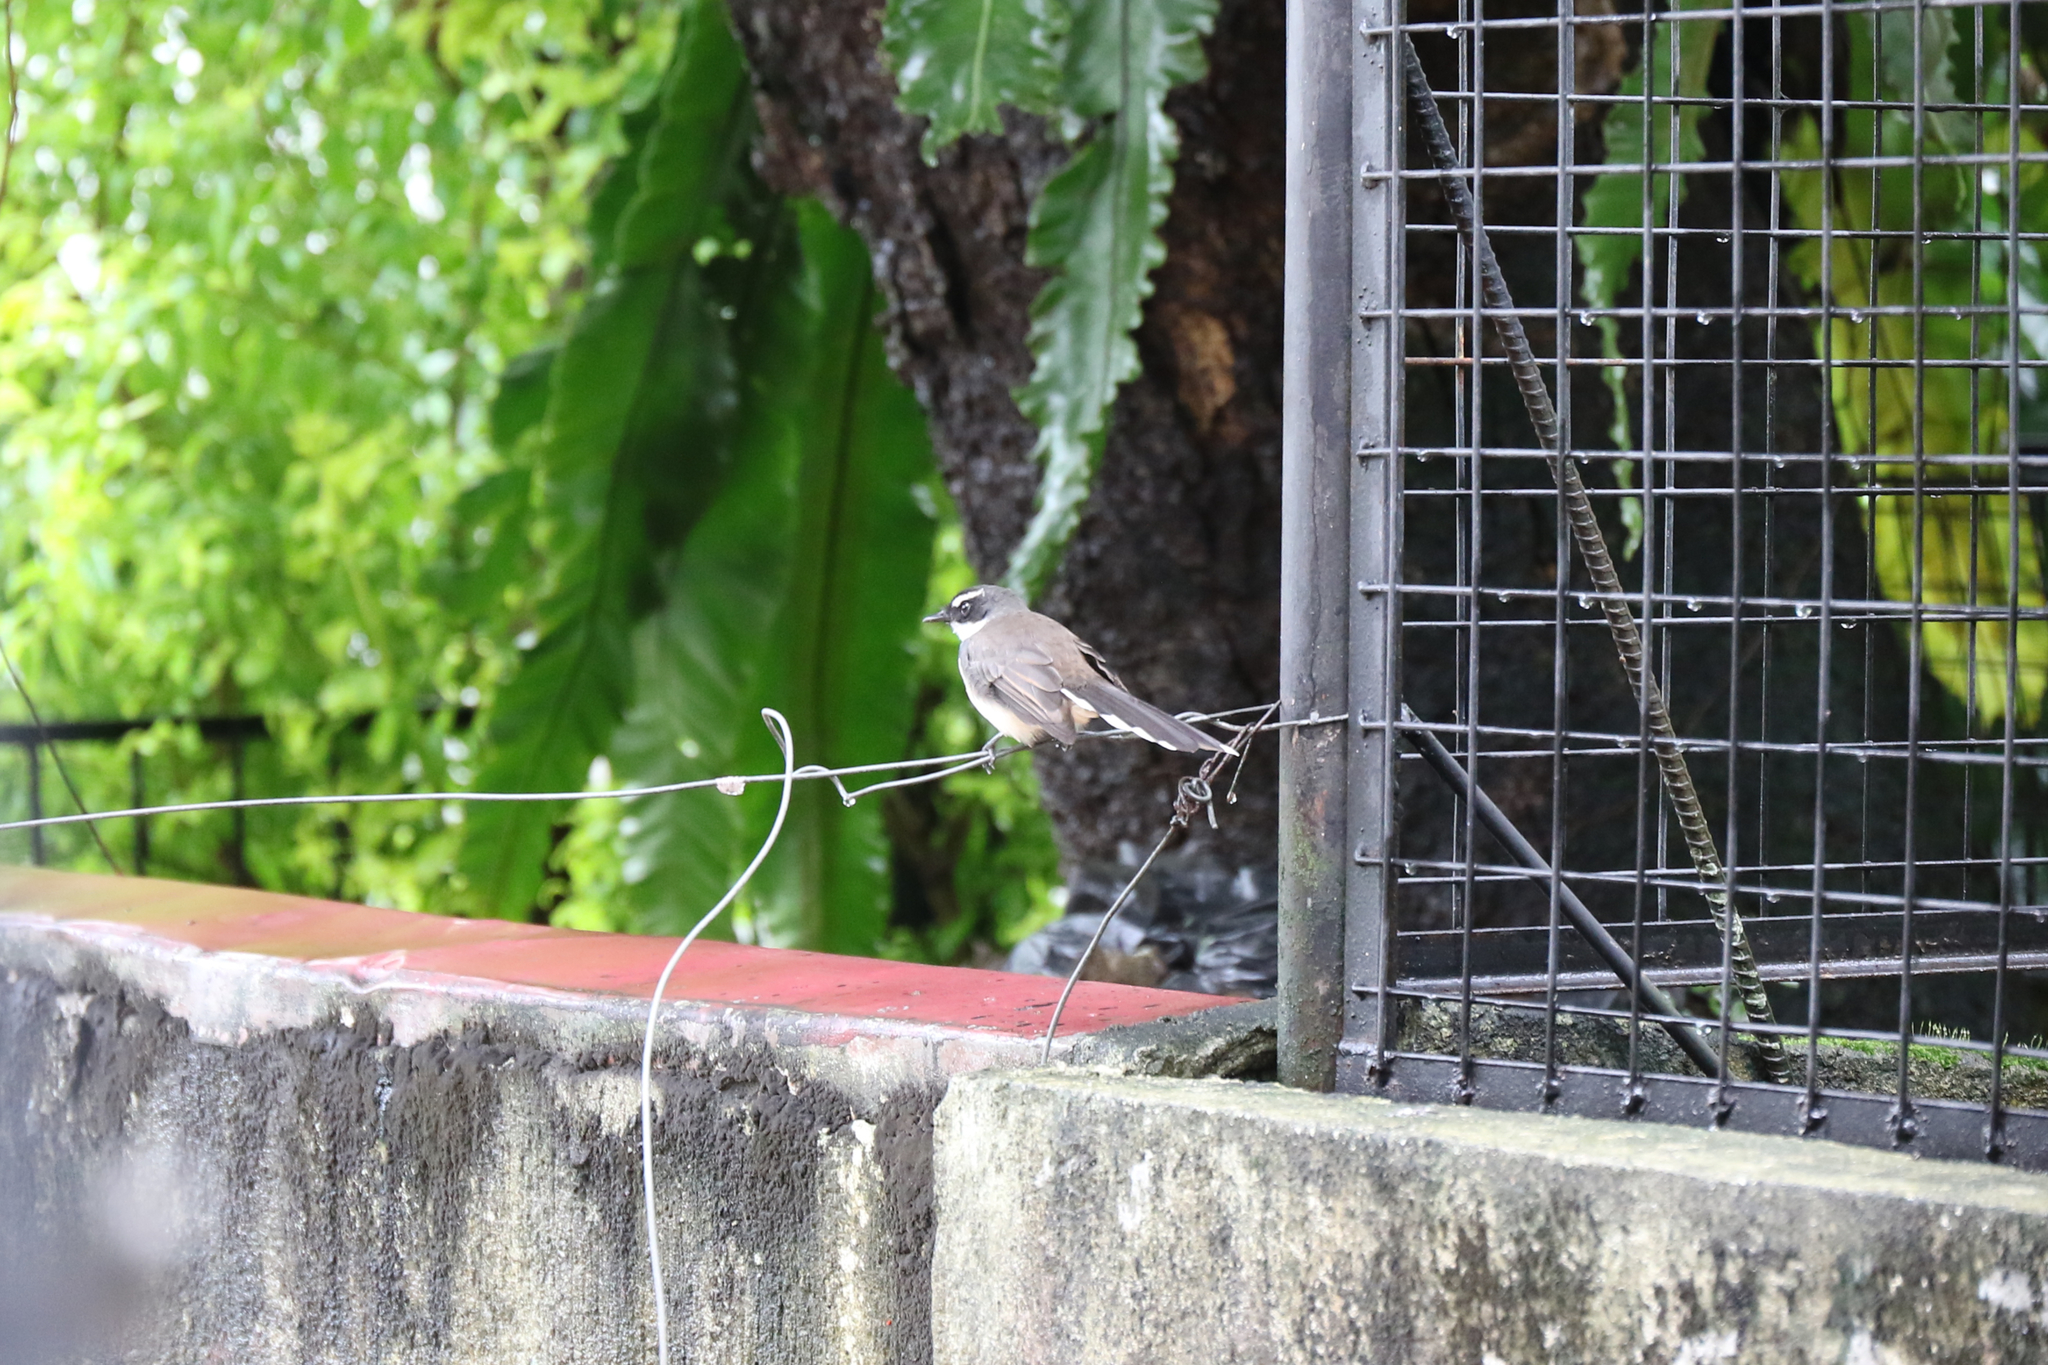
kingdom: Animalia
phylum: Chordata
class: Aves
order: Passeriformes
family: Rhipiduridae
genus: Rhipidura
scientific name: Rhipidura nigritorquis
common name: Philippine pied fantail
